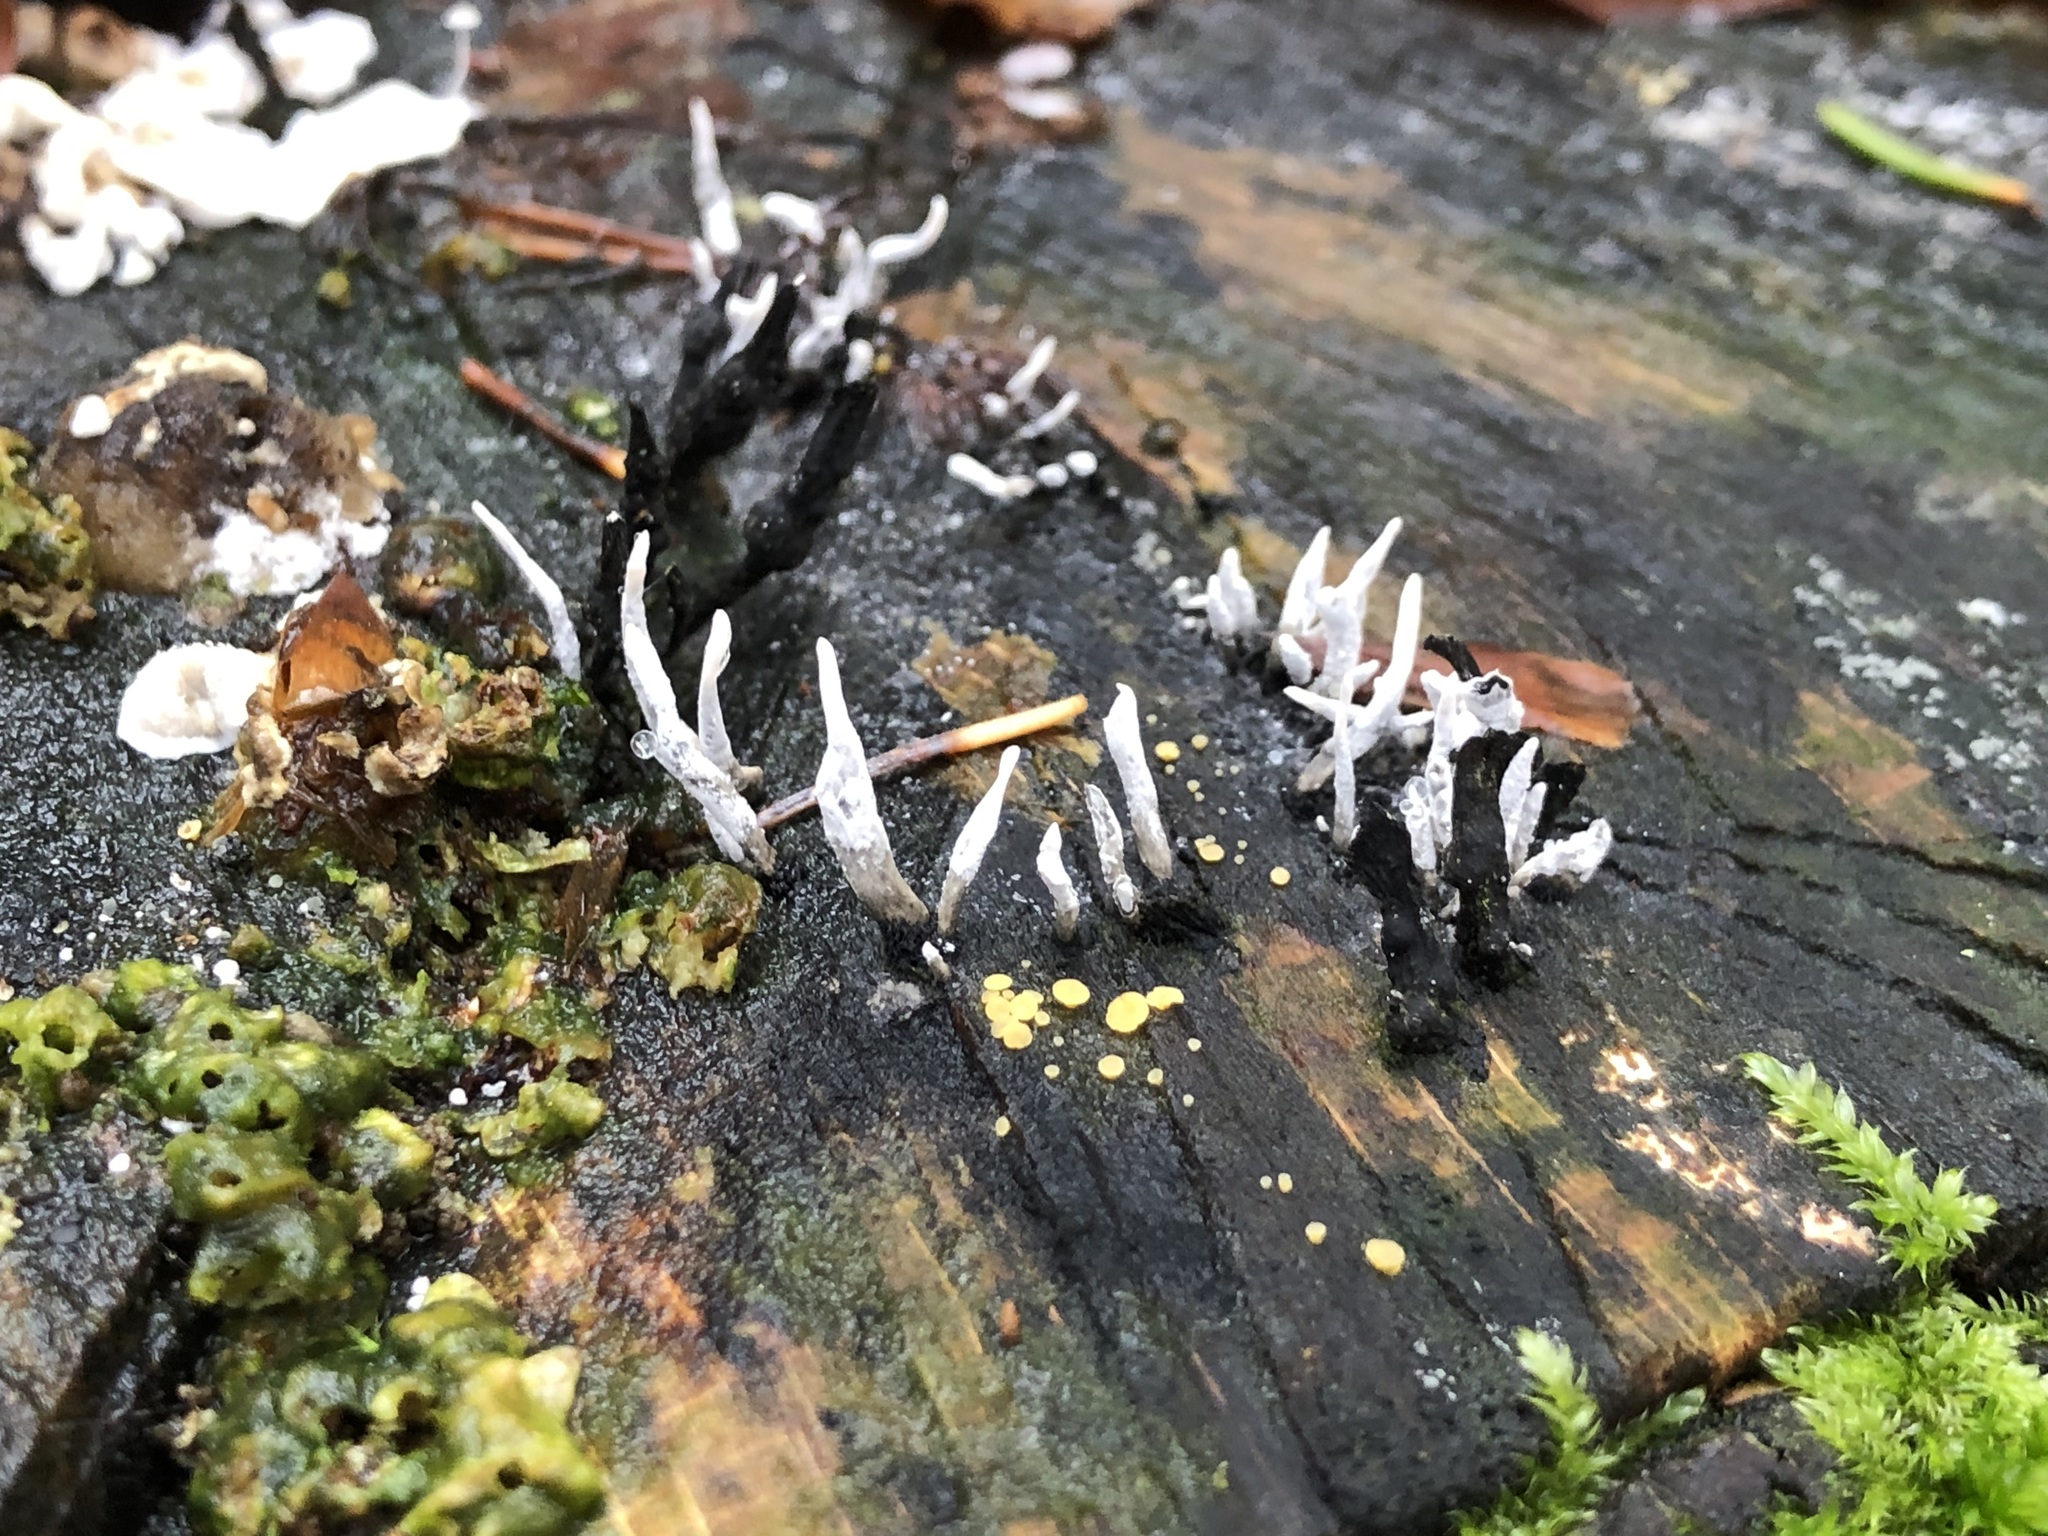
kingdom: Fungi
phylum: Ascomycota
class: Sordariomycetes
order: Xylariales
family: Xylariaceae
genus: Xylaria
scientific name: Xylaria hypoxylon
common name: Candle-snuff fungus
